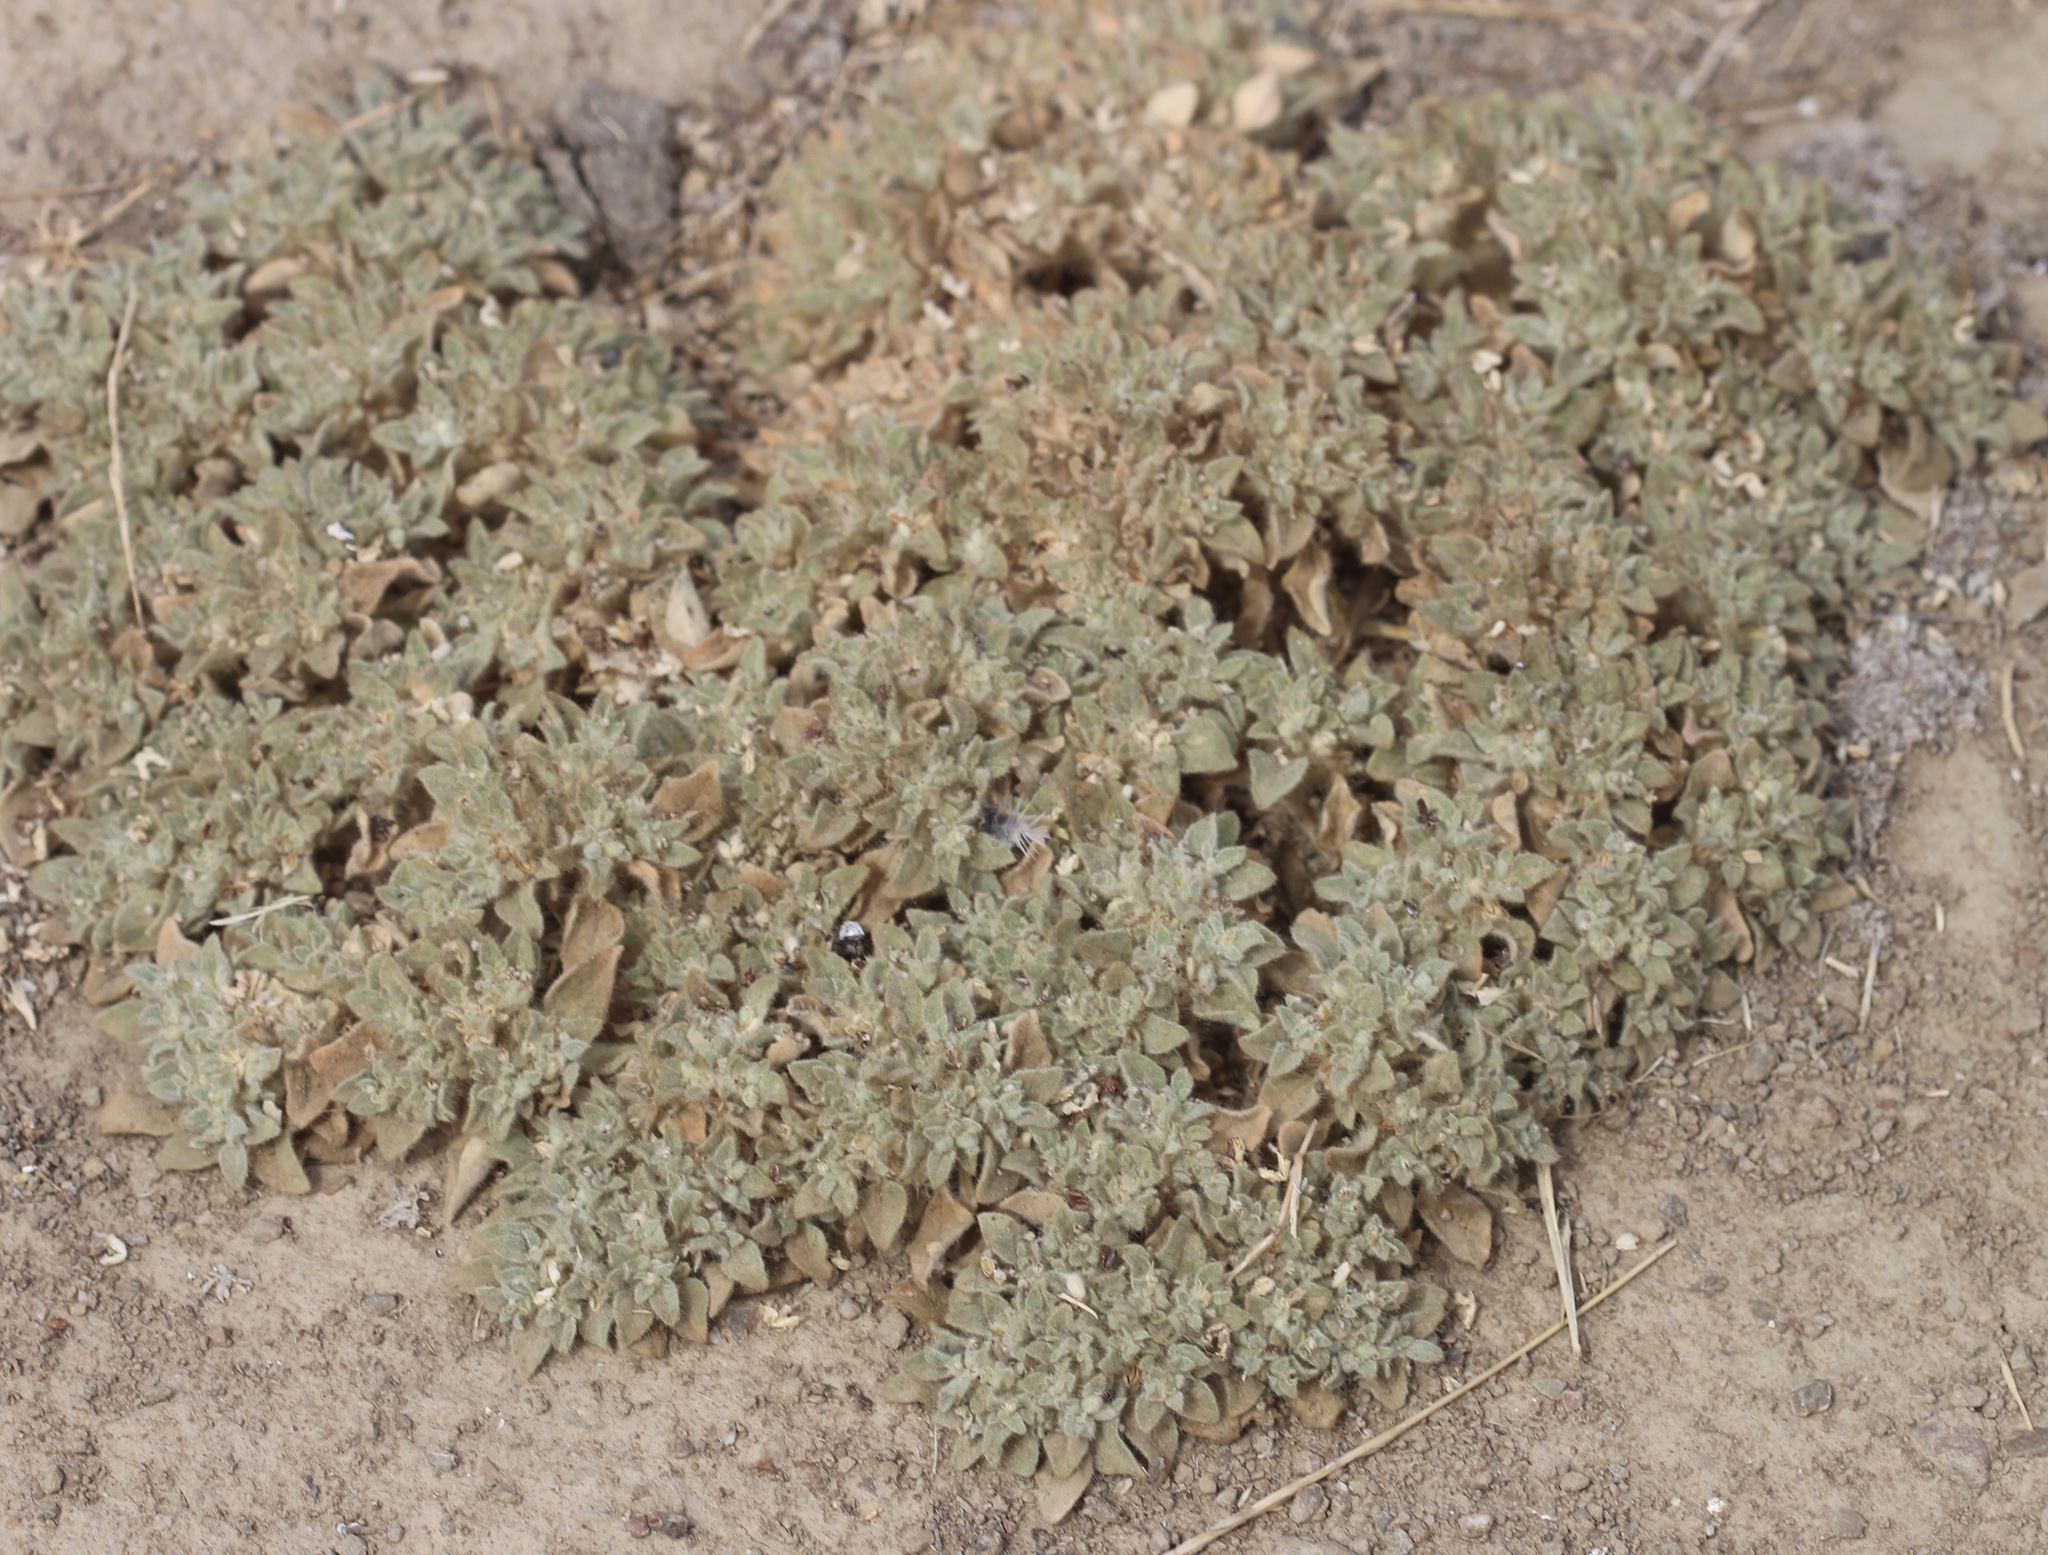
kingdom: Plantae
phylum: Tracheophyta
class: Magnoliopsida
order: Malpighiales
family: Euphorbiaceae
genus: Croton
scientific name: Croton setiger
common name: Dove weed
